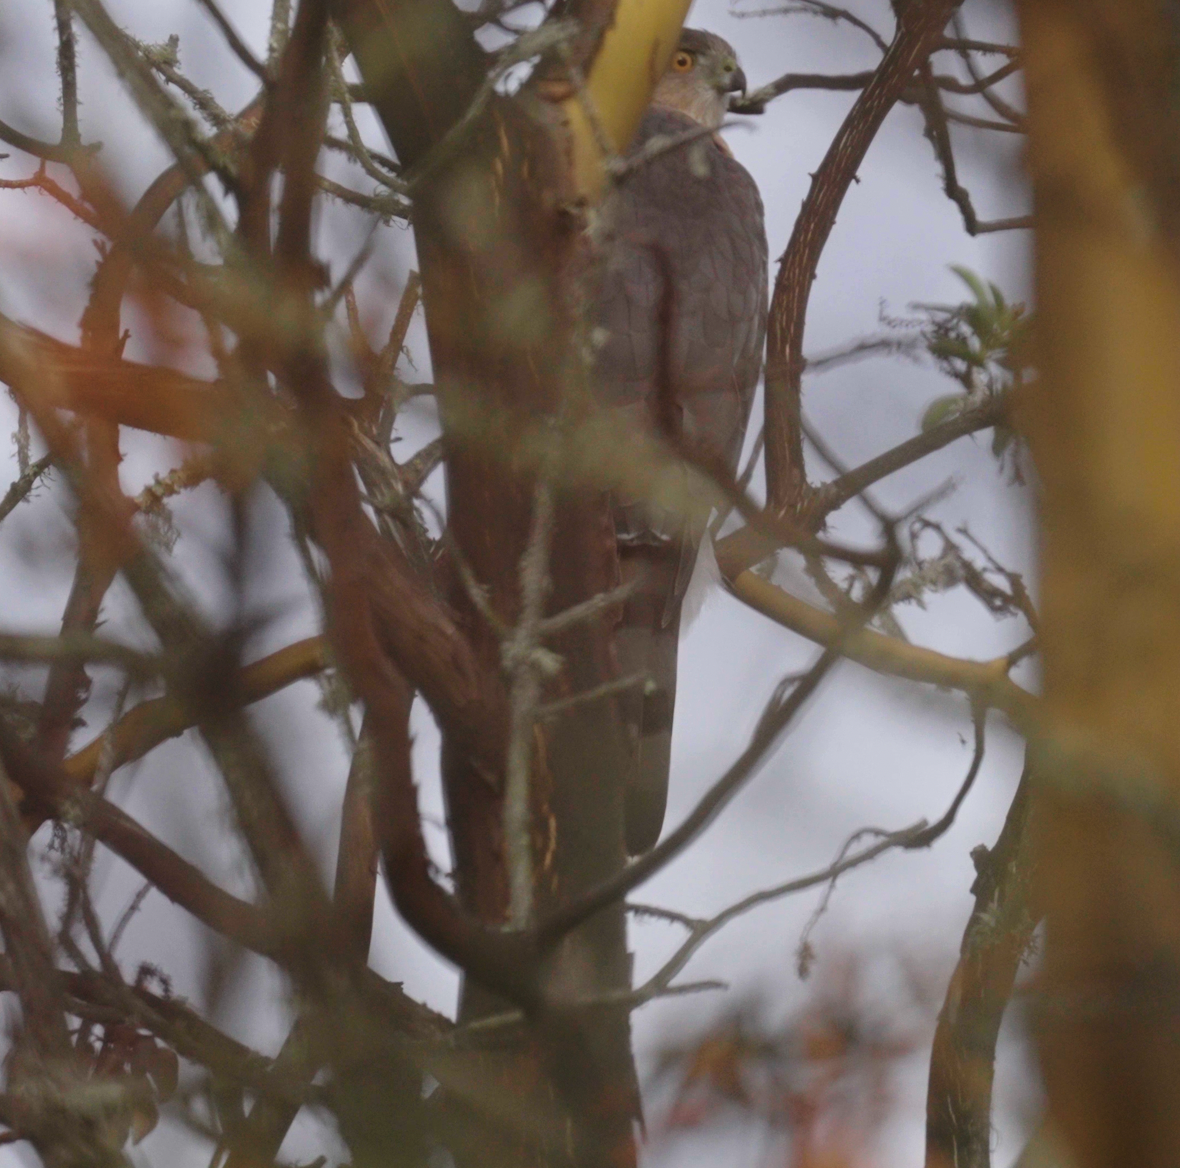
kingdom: Animalia
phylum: Chordata
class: Aves
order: Accipitriformes
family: Accipitridae
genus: Accipiter
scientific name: Accipiter cooperii
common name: Cooper's hawk
